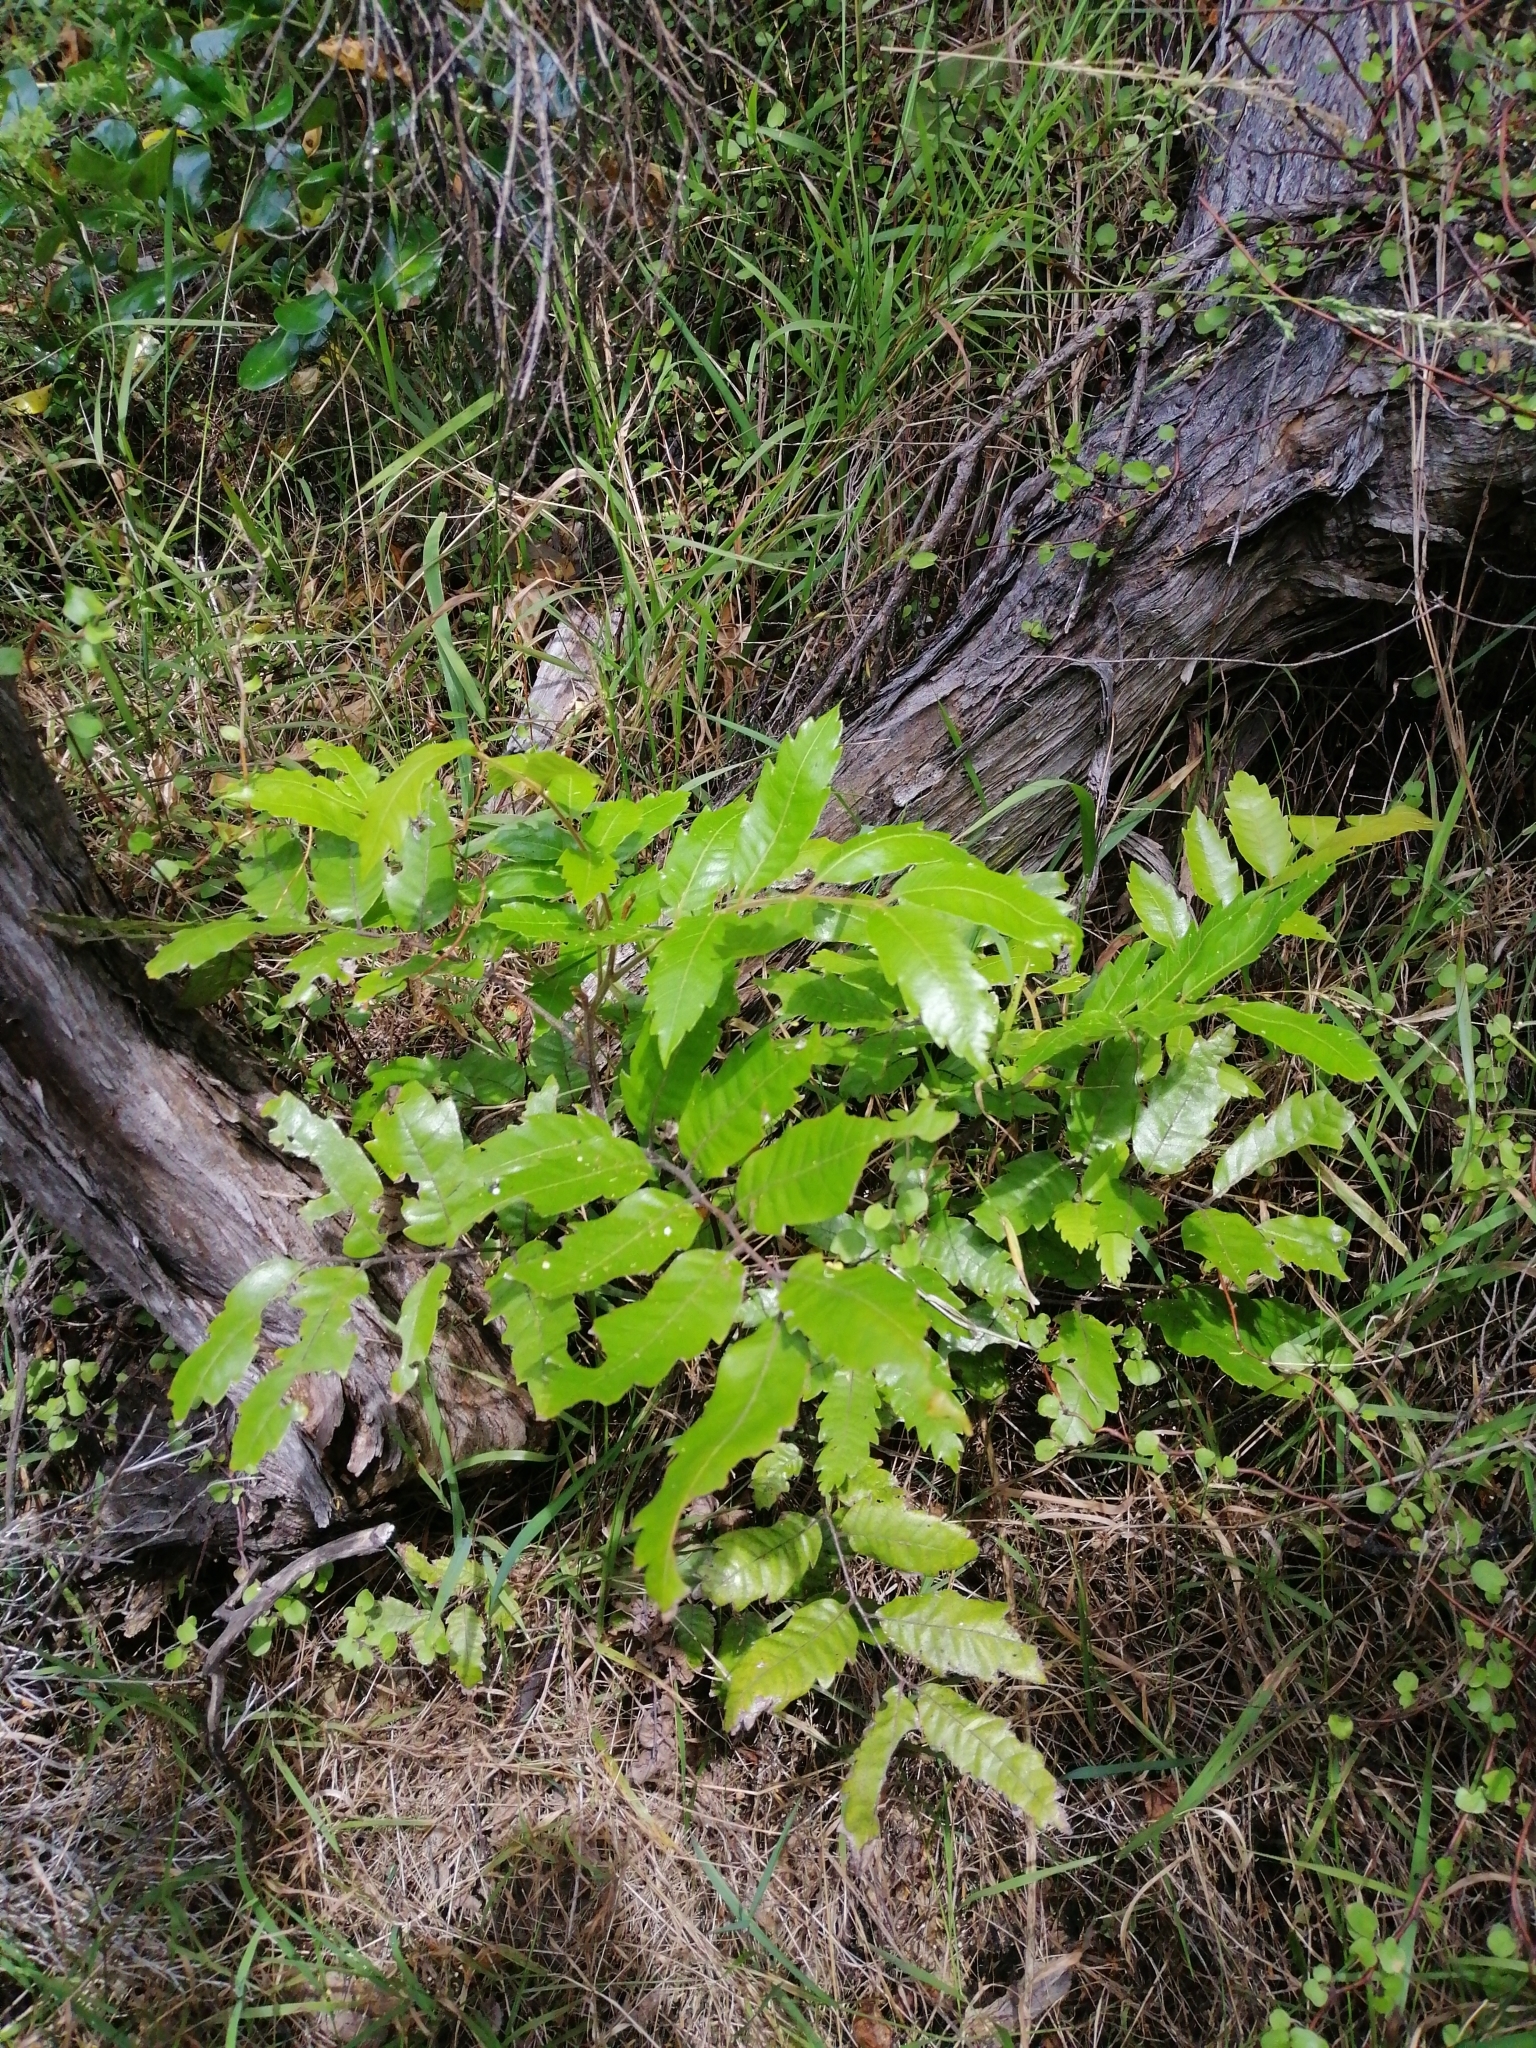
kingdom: Plantae
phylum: Tracheophyta
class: Magnoliopsida
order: Sapindales
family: Sapindaceae
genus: Alectryon
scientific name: Alectryon excelsus
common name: Three kings titoki
